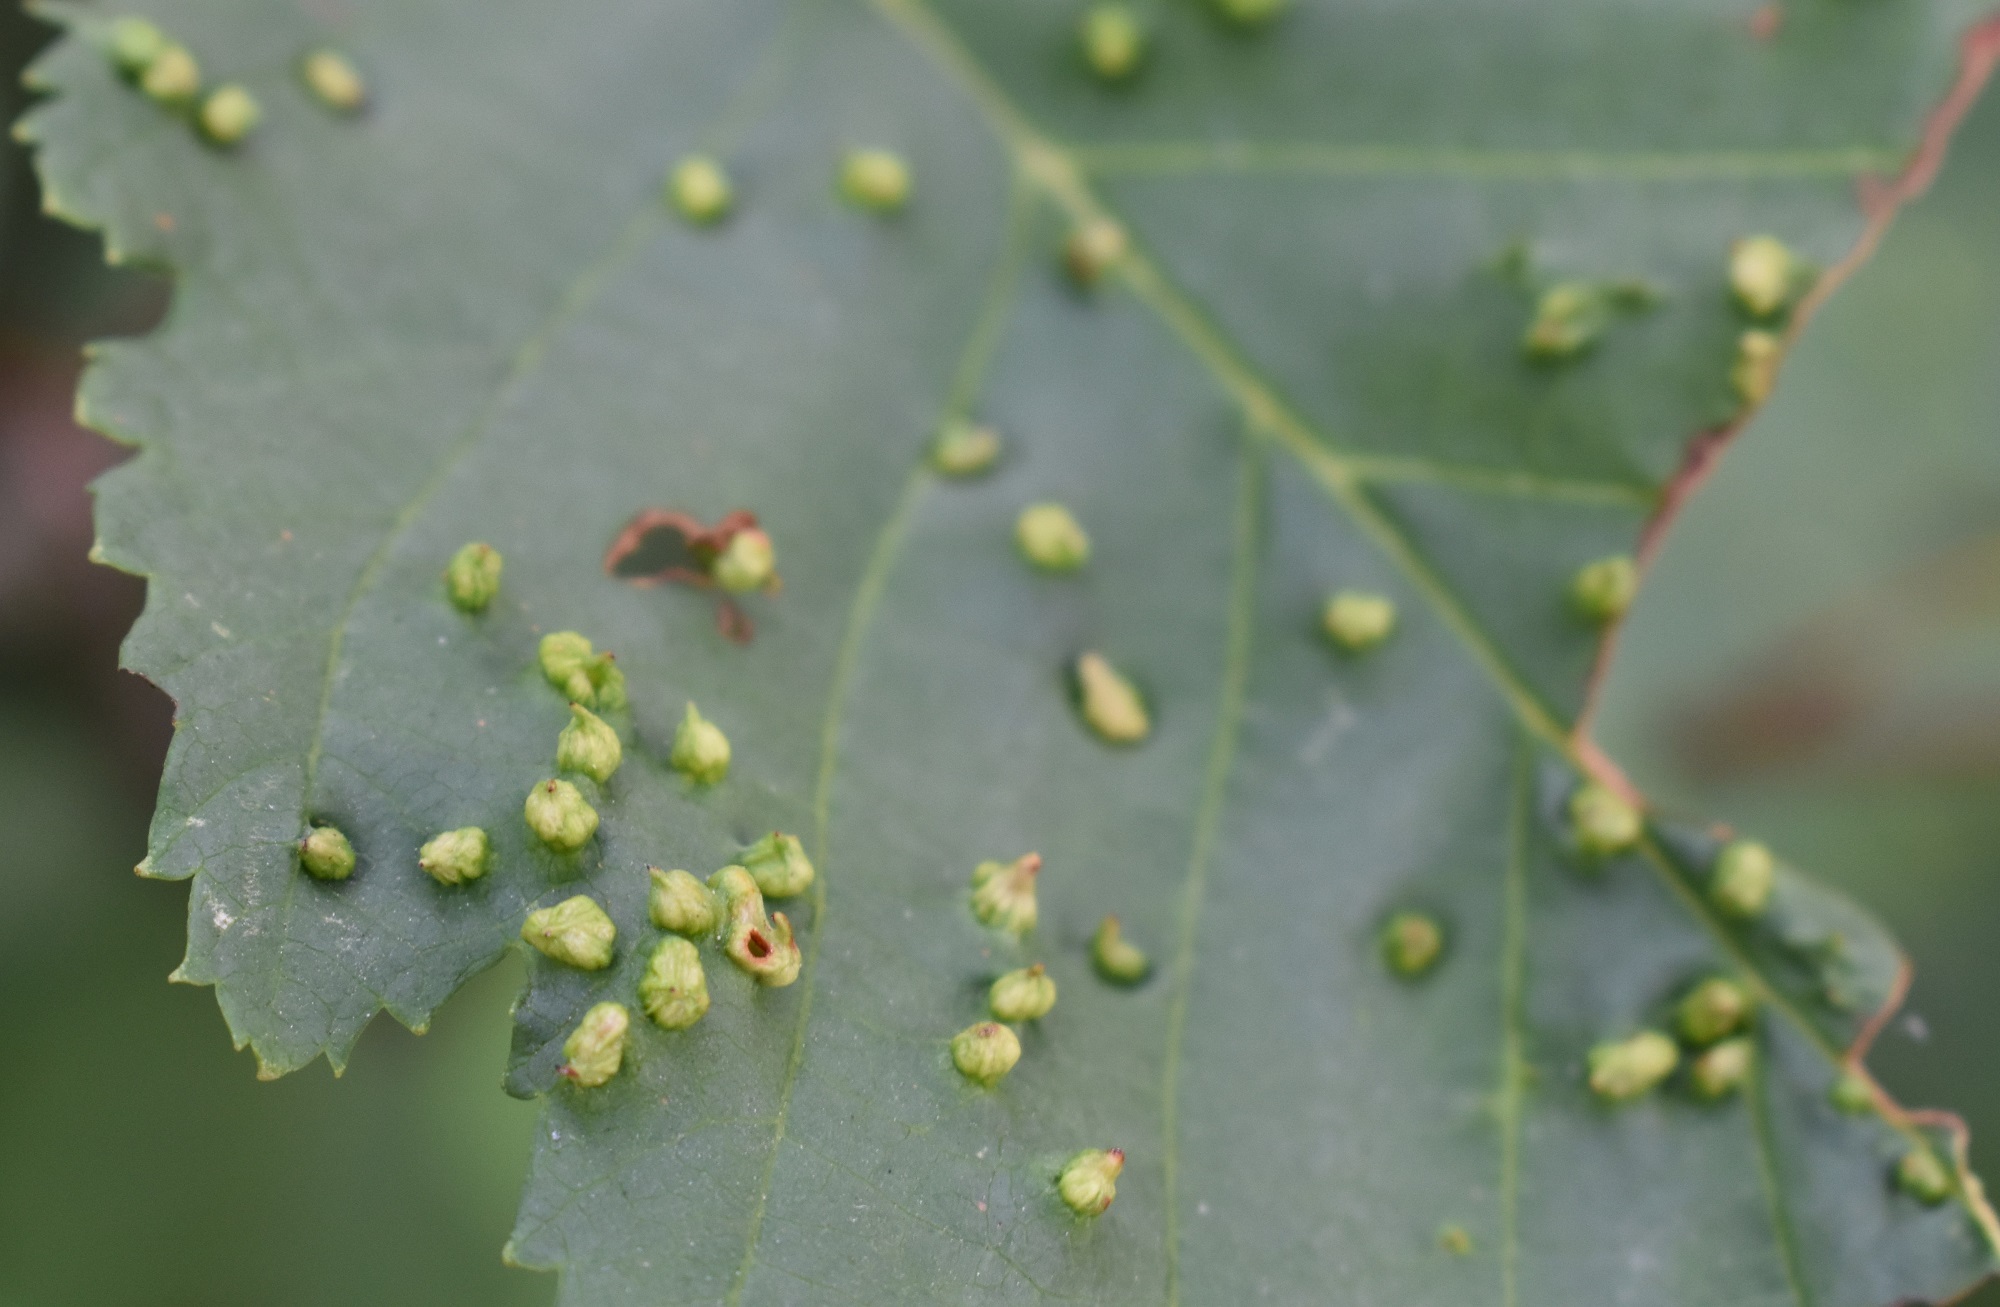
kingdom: Plantae
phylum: Tracheophyta
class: Magnoliopsida
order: Fagales
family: Betulaceae
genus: Alnus
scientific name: Alnus incana
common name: Grey alder
